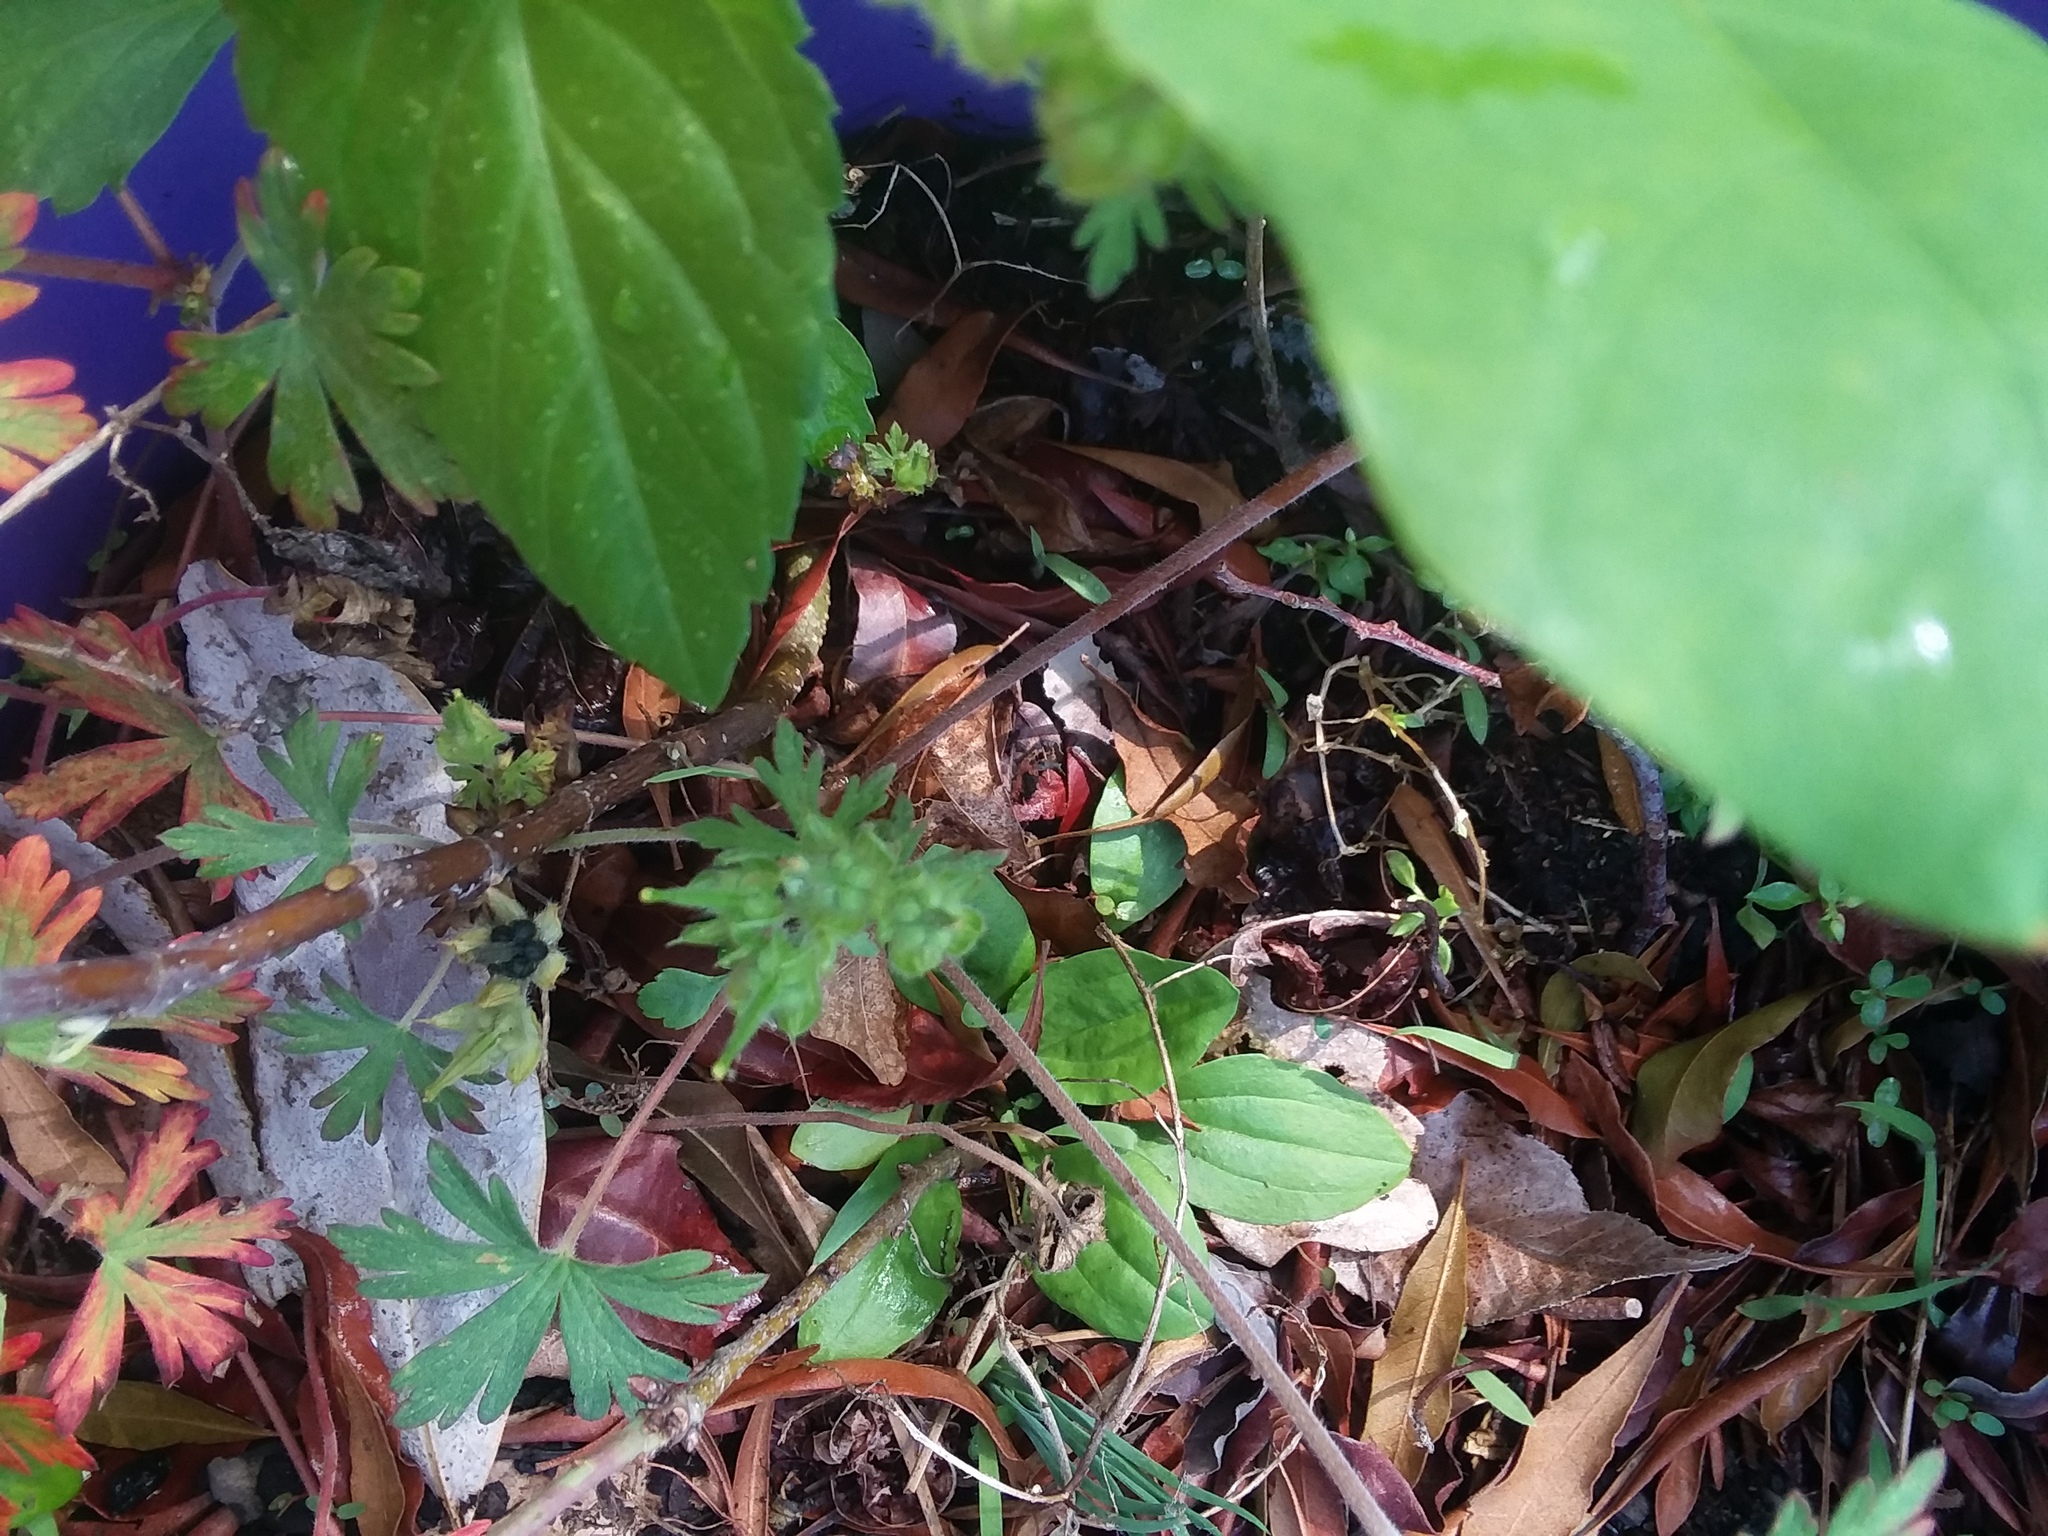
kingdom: Plantae
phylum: Tracheophyta
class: Magnoliopsida
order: Geraniales
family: Geraniaceae
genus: Geranium
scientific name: Geranium carolinianum
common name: Carolina crane's-bill
